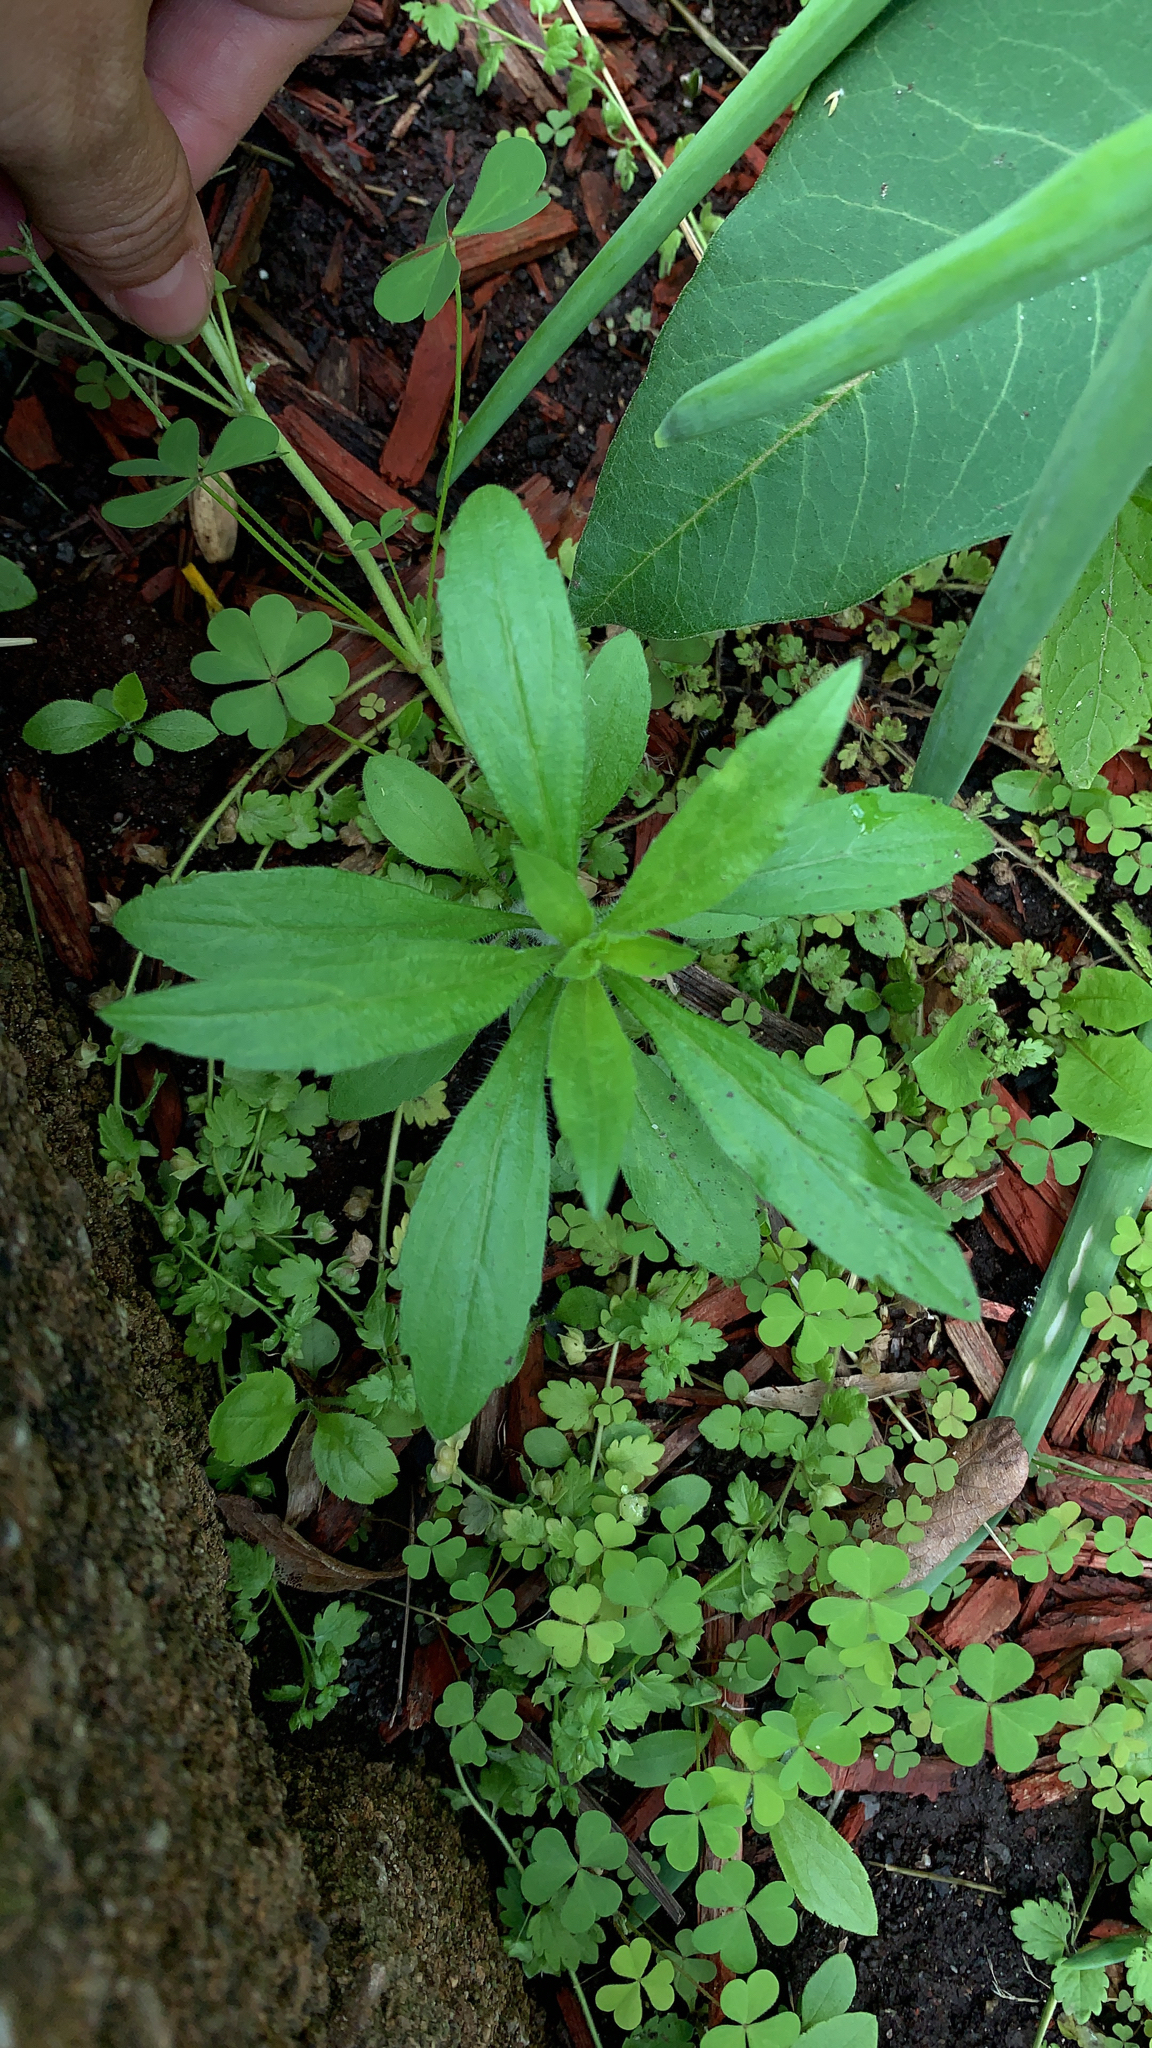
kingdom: Plantae
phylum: Tracheophyta
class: Magnoliopsida
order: Asterales
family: Asteraceae
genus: Erigeron
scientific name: Erigeron canadensis
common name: Canadian fleabane
